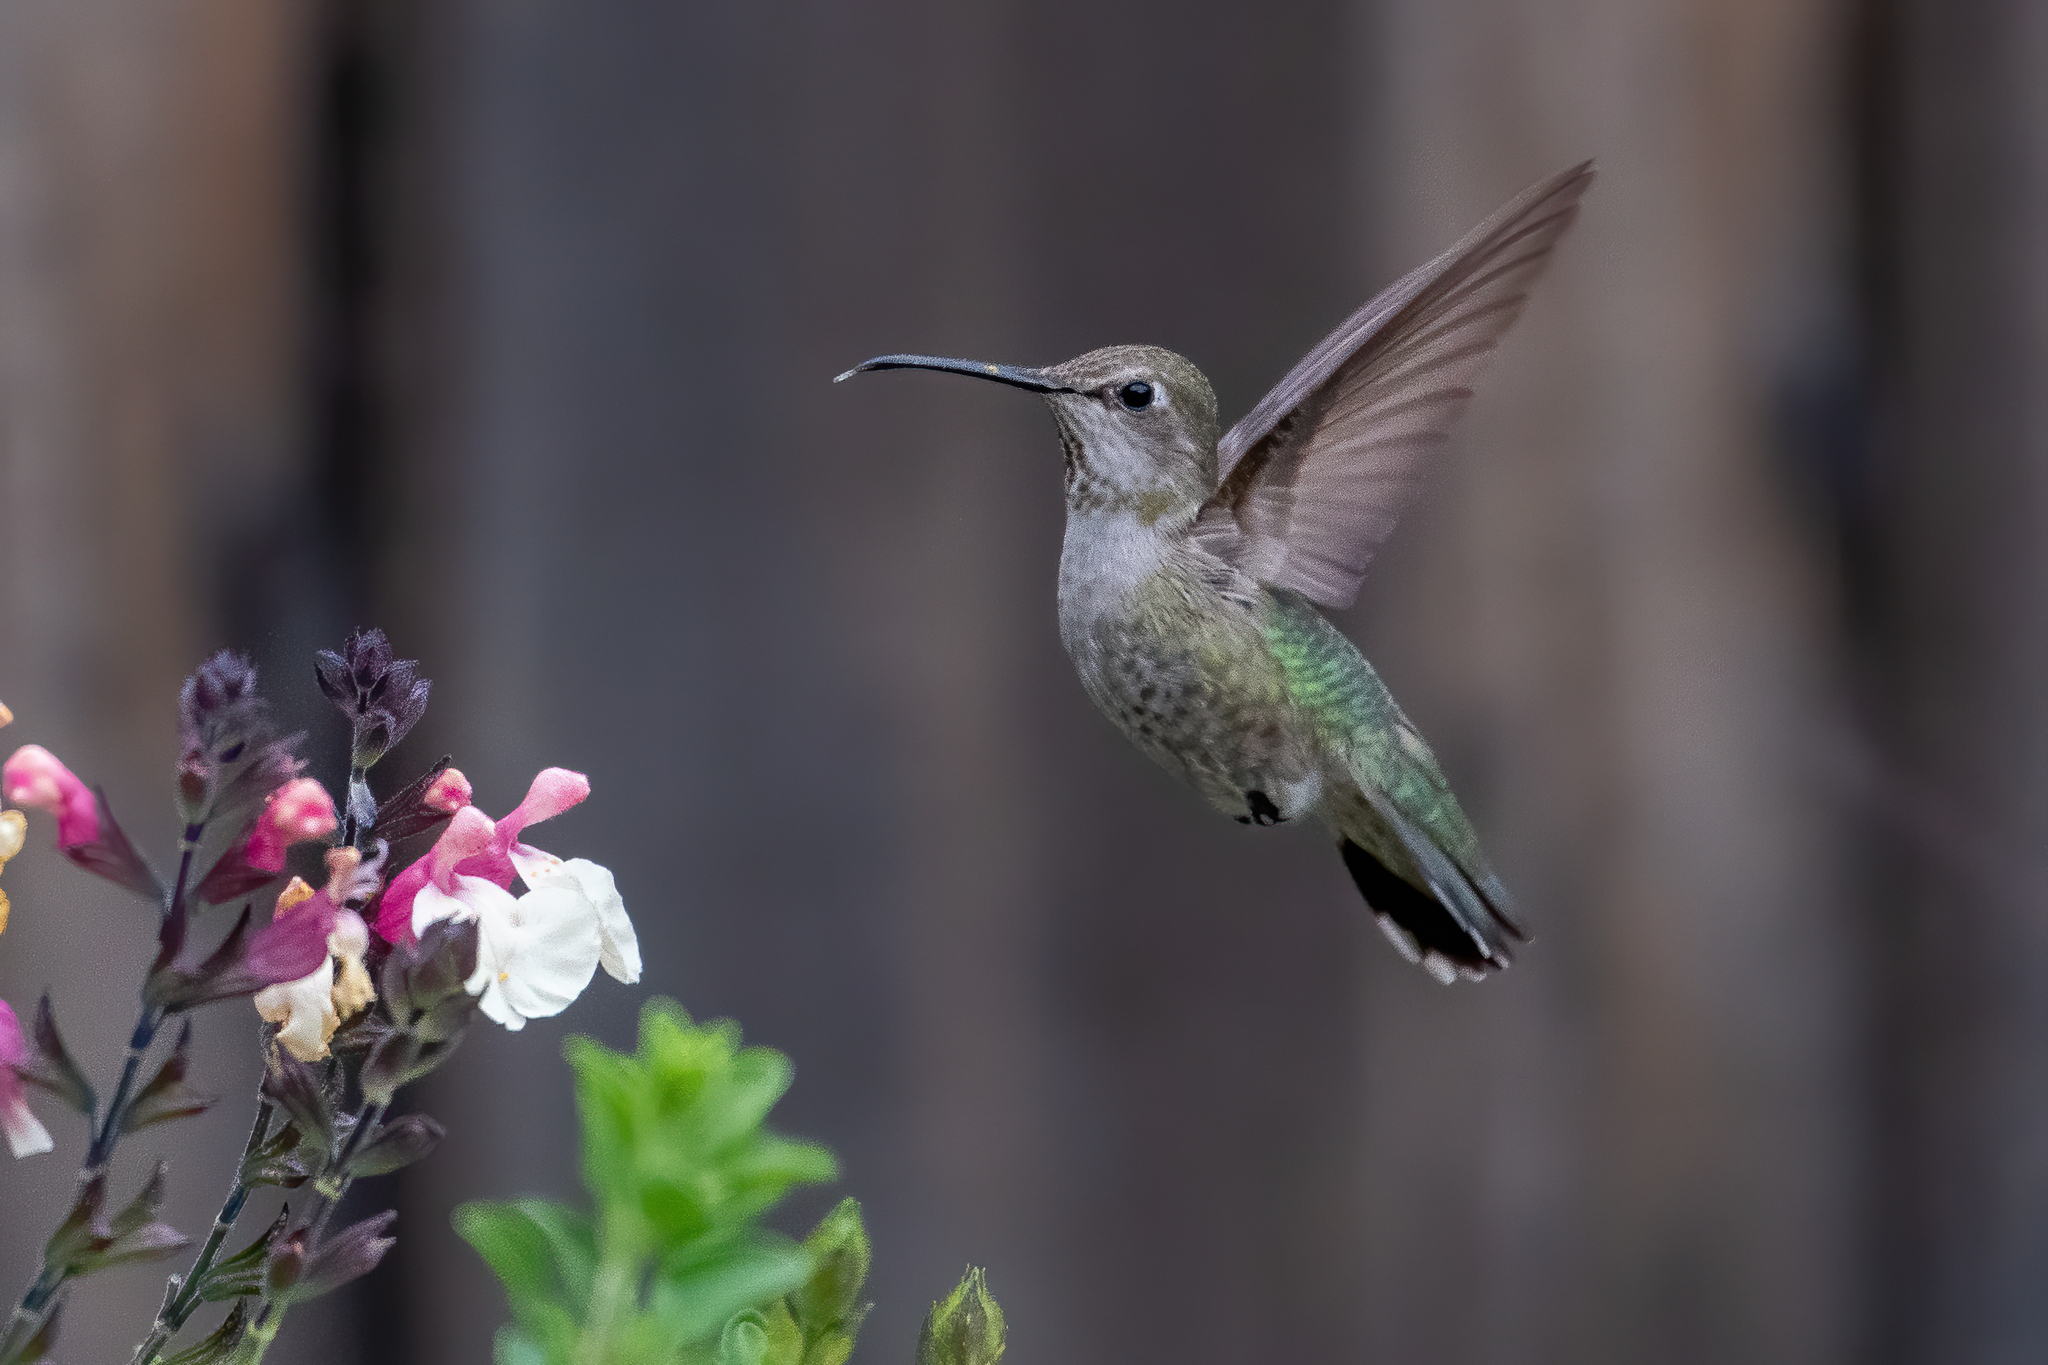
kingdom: Animalia
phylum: Chordata
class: Aves
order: Apodiformes
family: Trochilidae
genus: Calypte
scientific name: Calypte anna
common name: Anna's hummingbird
